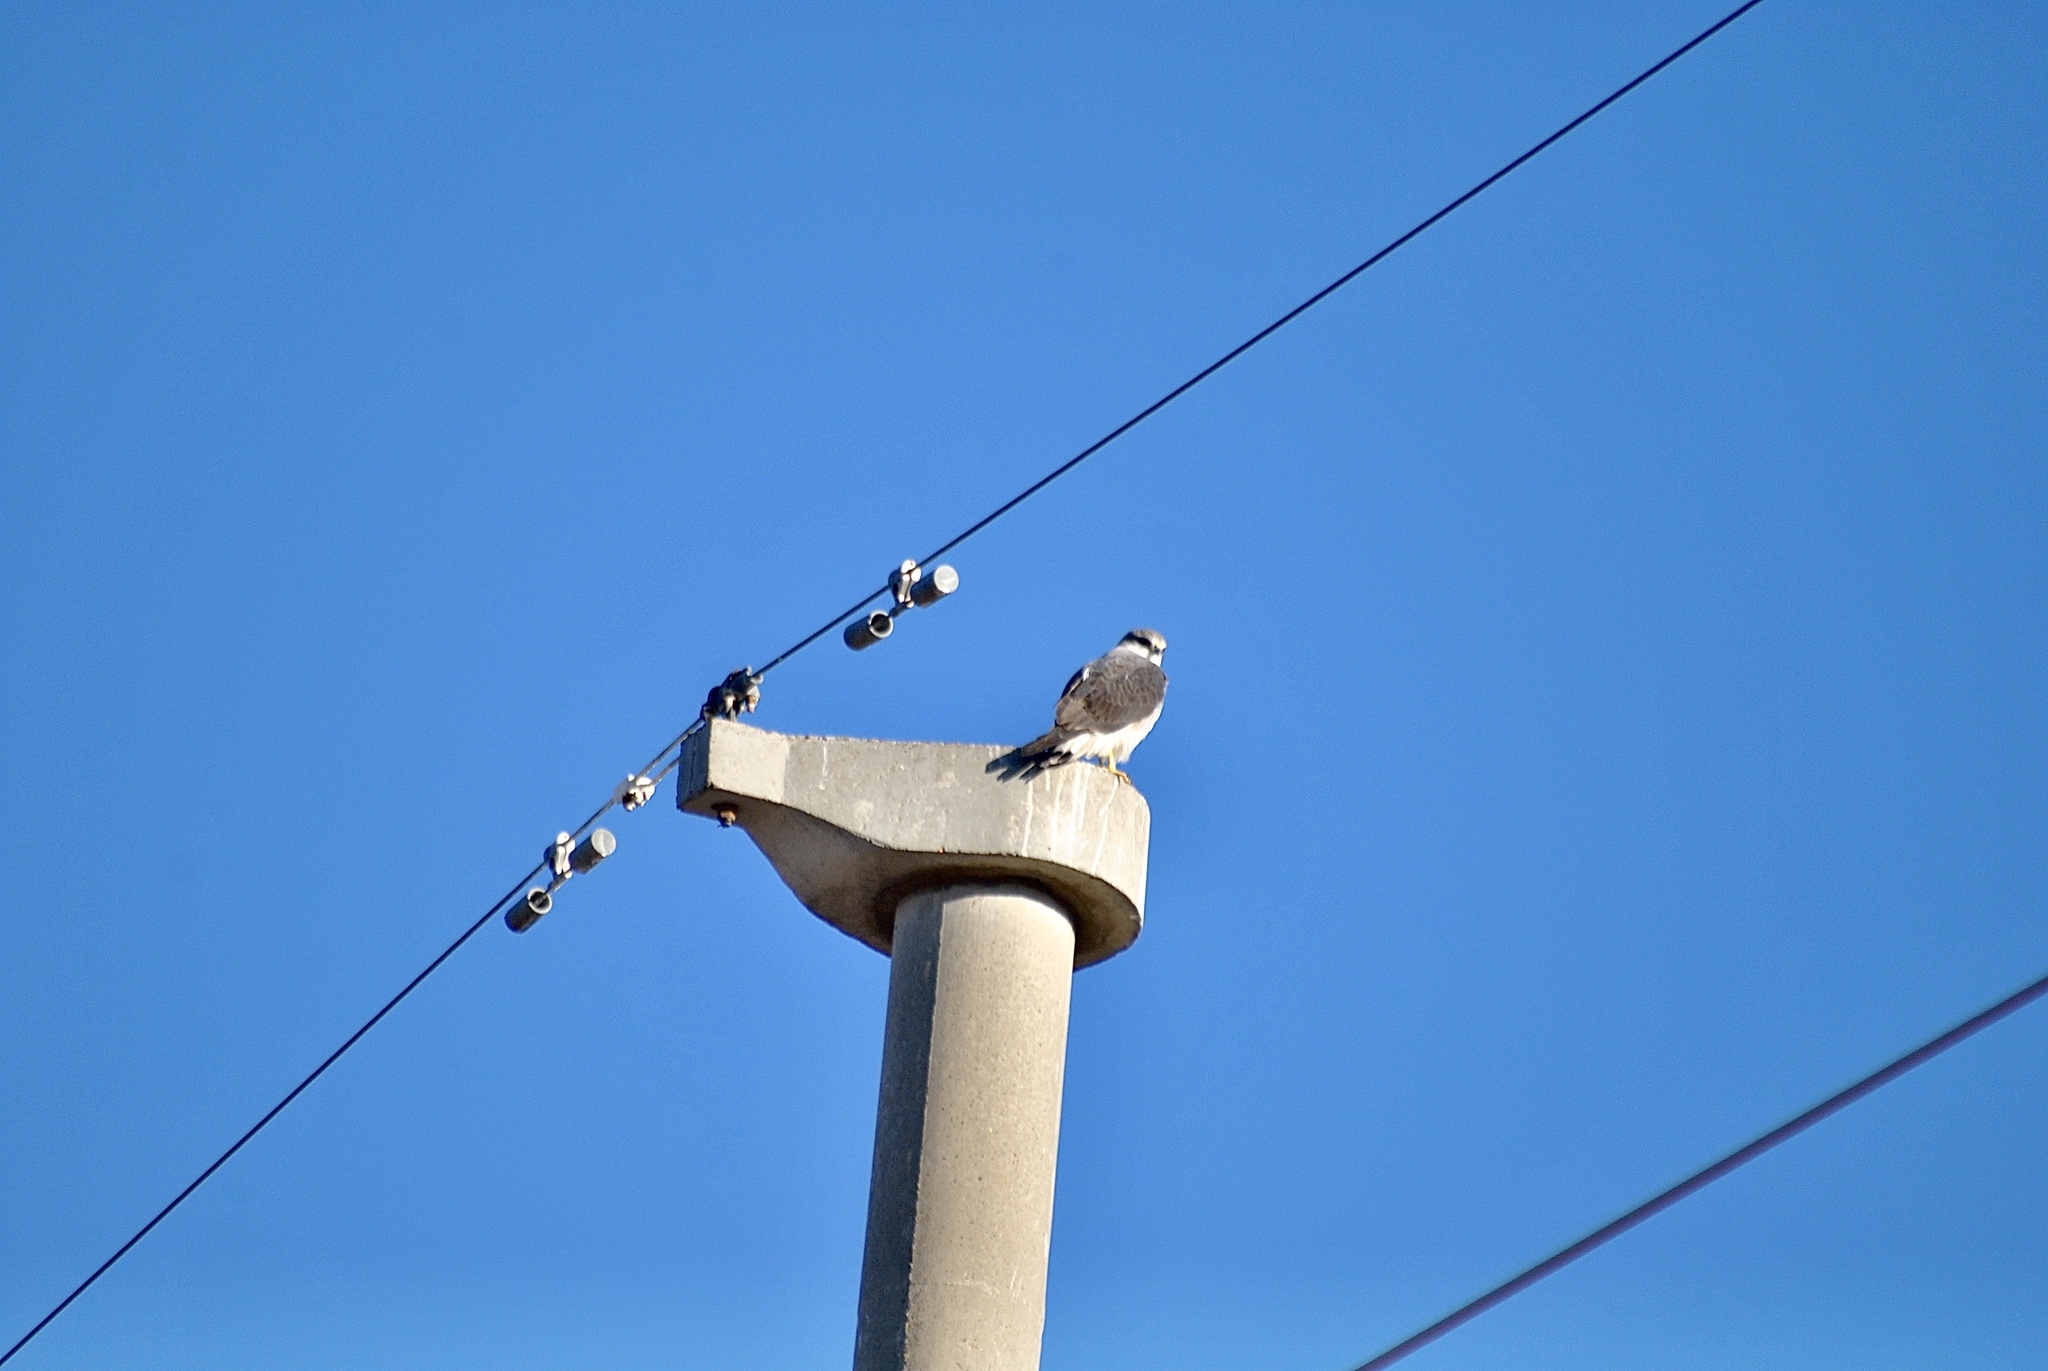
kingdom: Animalia
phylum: Chordata
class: Aves
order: Accipitriformes
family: Accipitridae
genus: Buteo
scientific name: Buteo polyosoma
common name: Variable hawk
